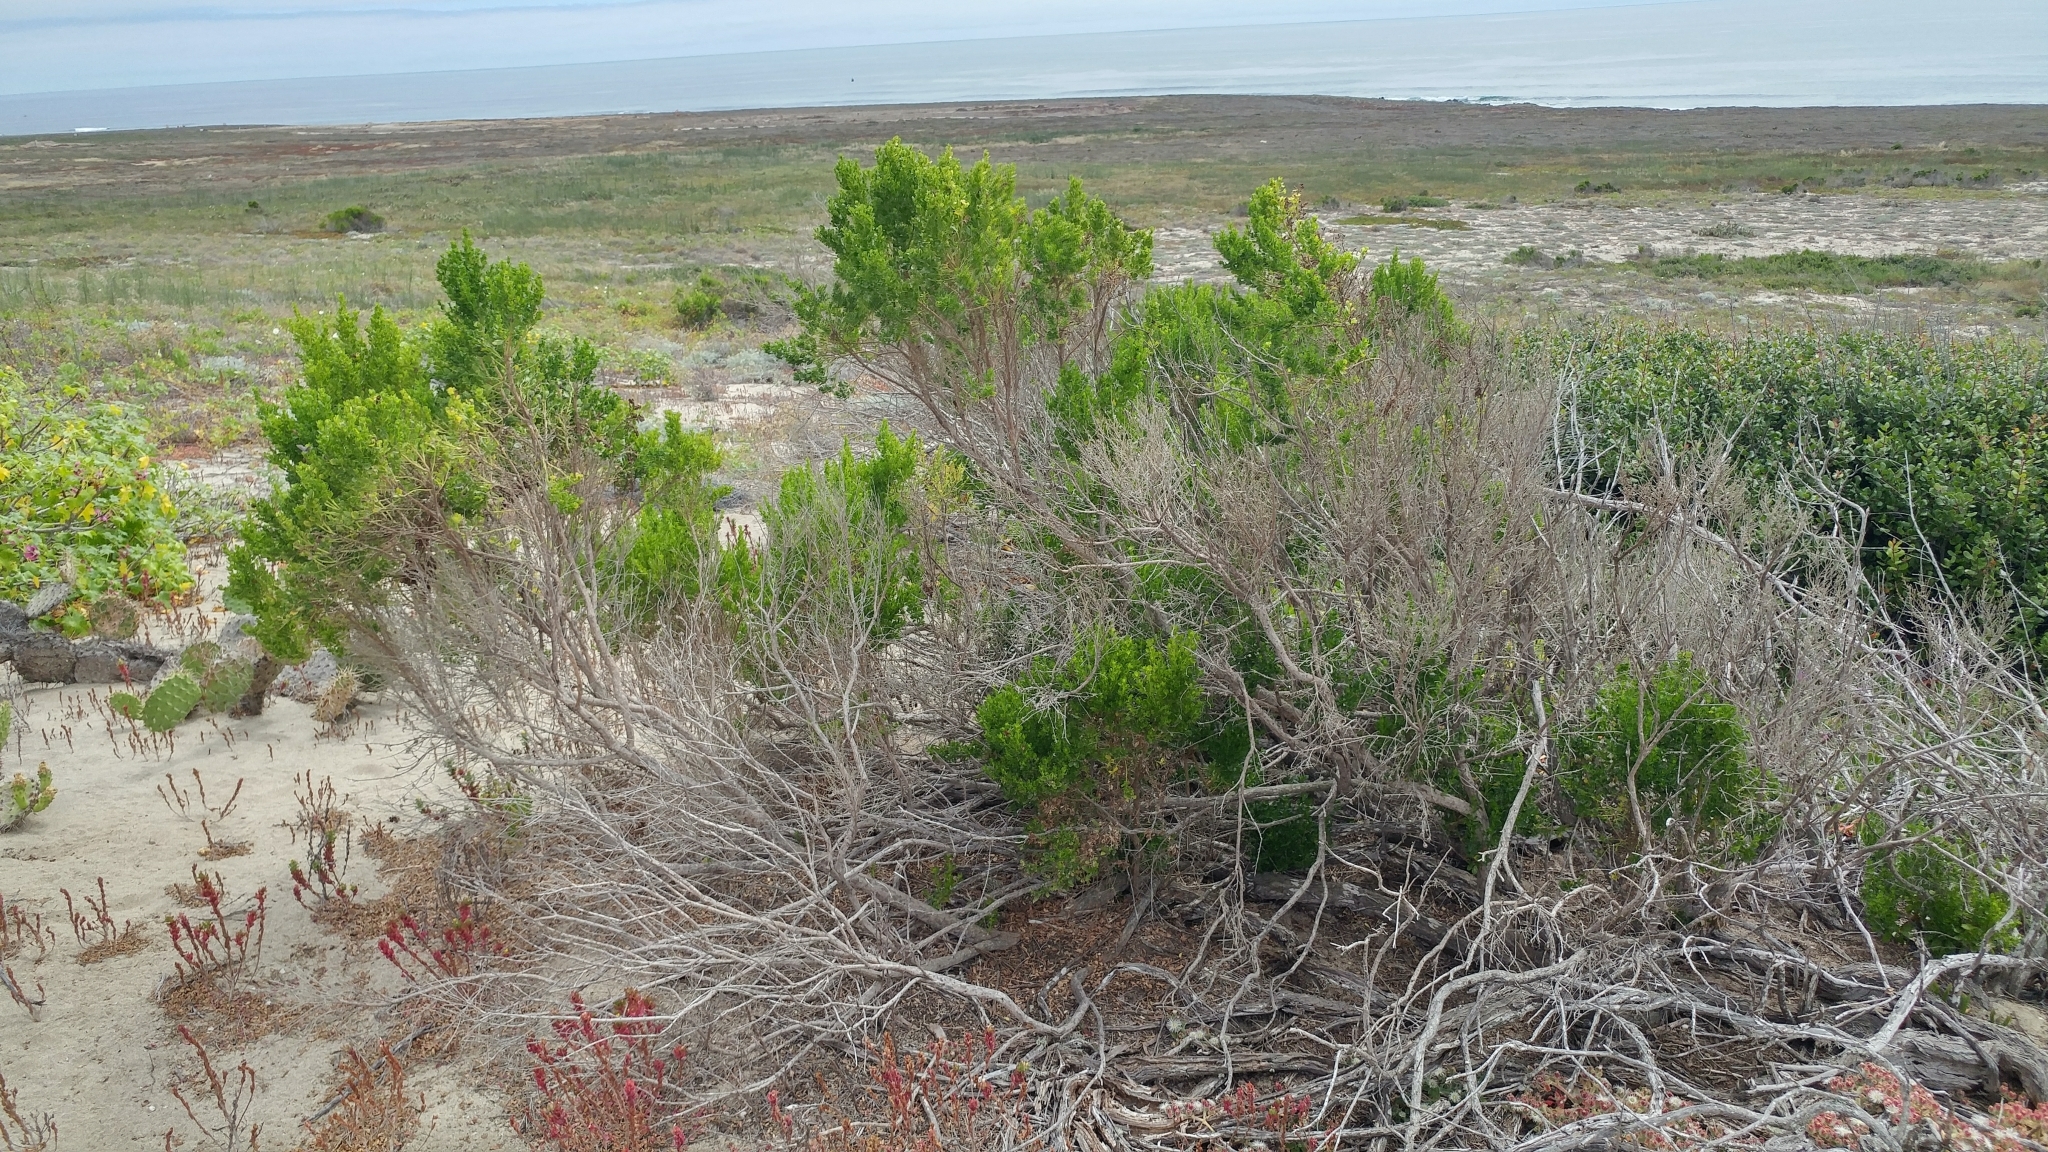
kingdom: Plantae
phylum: Tracheophyta
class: Magnoliopsida
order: Asterales
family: Asteraceae
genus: Baccharis
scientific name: Baccharis pilularis
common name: Coyotebrush
